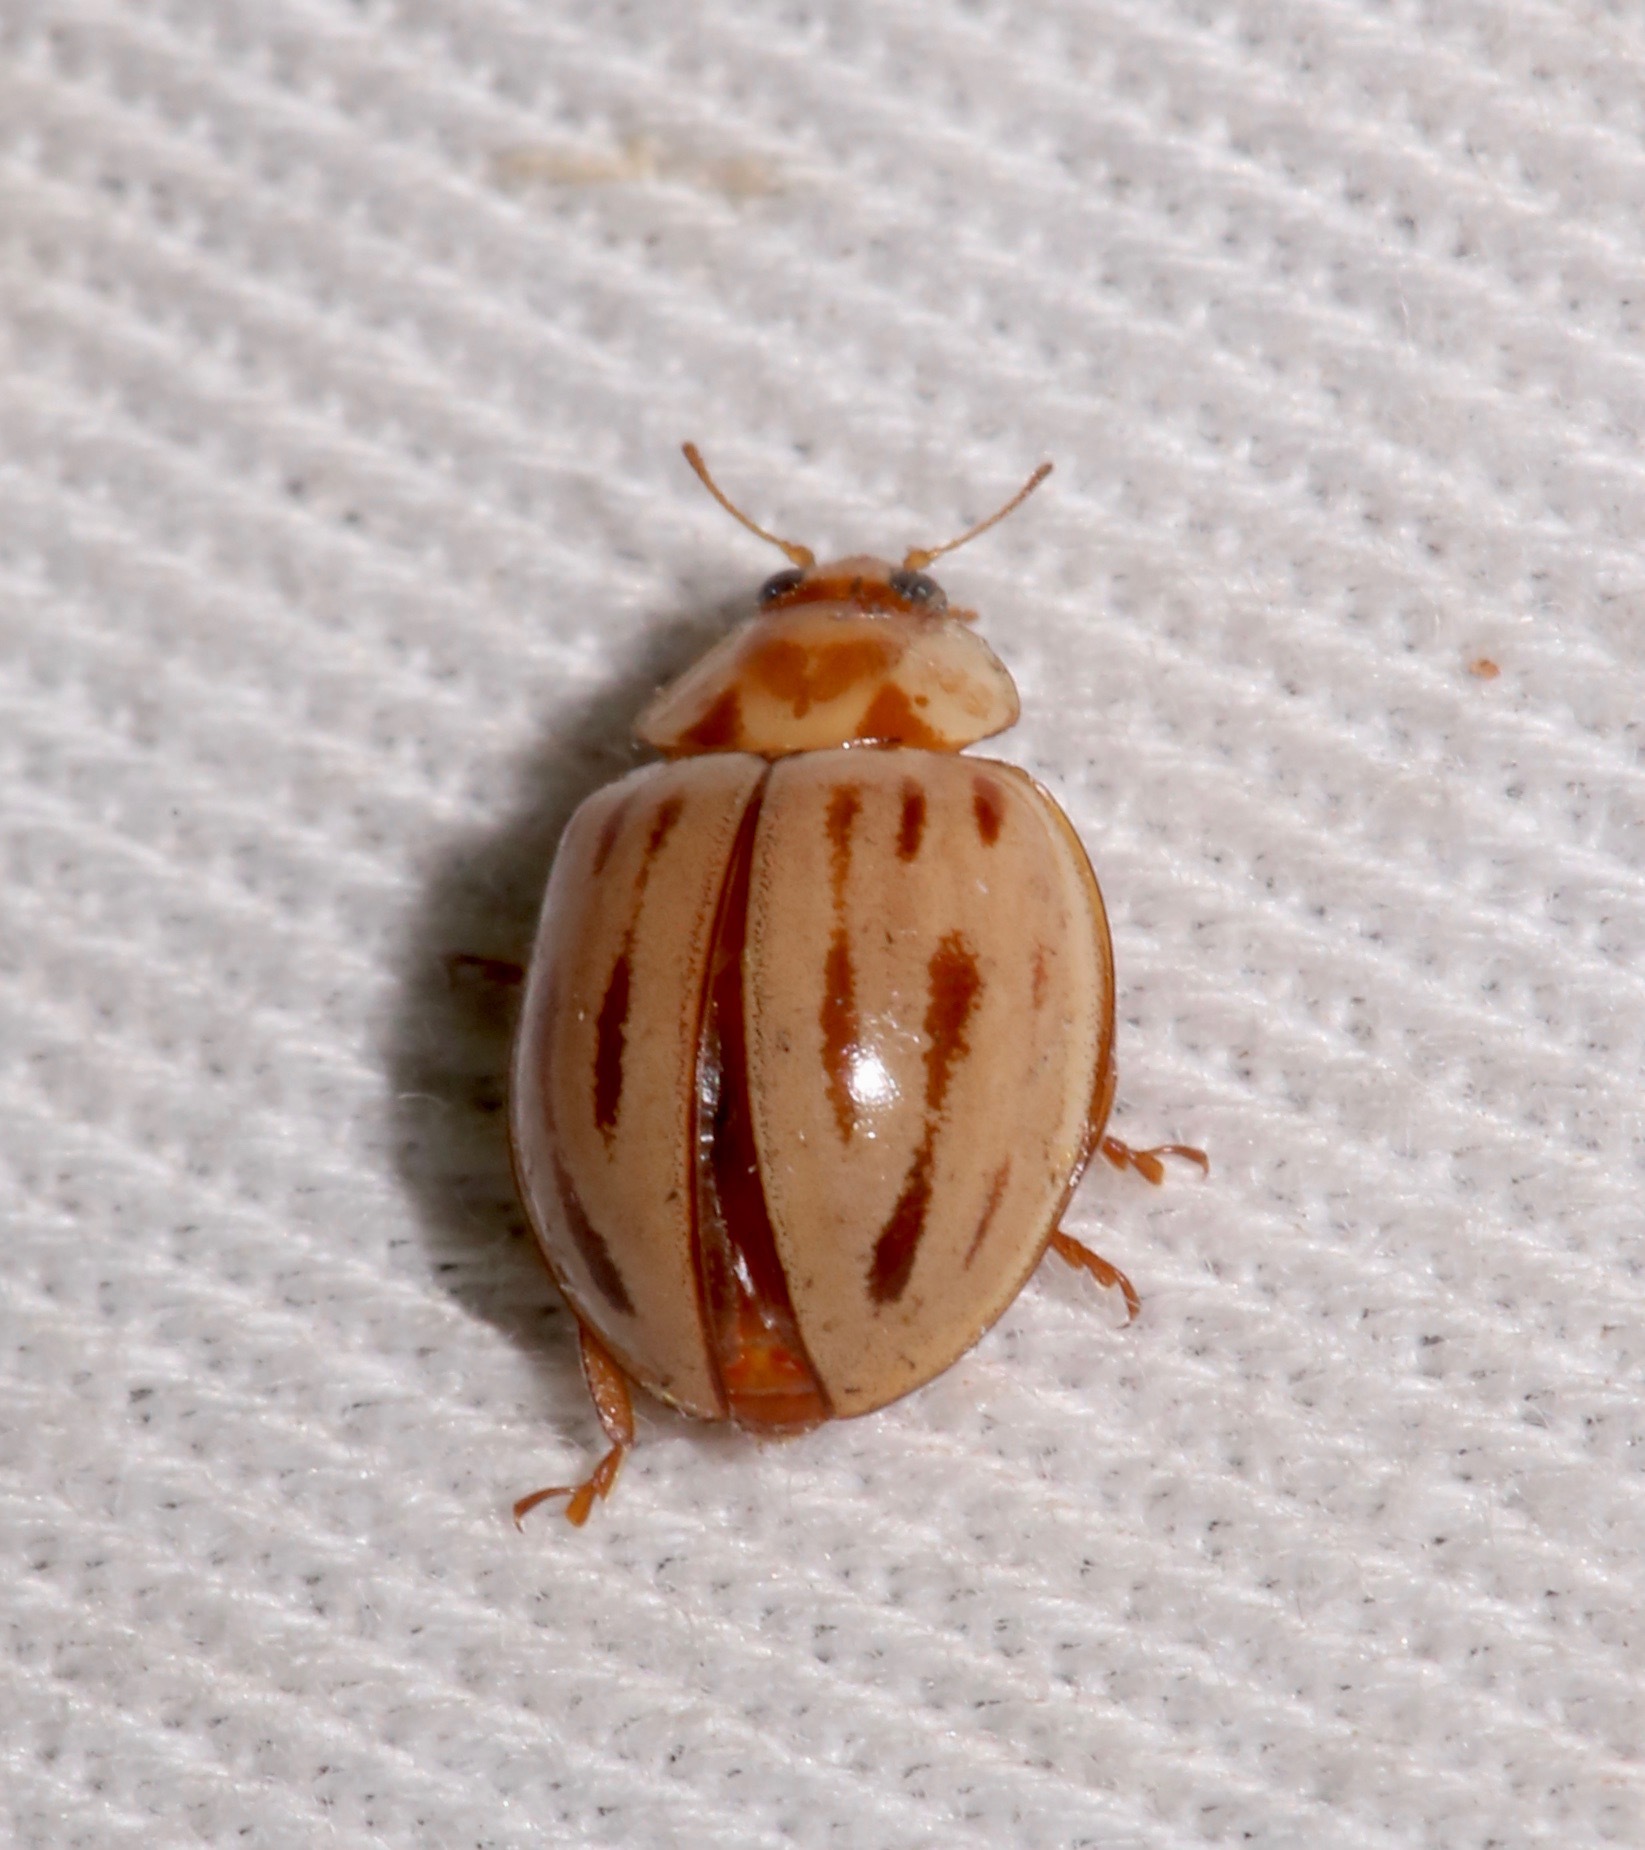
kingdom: Animalia
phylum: Arthropoda
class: Insecta
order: Coleoptera
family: Coccinellidae
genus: Myzia
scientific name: Myzia interrupta
